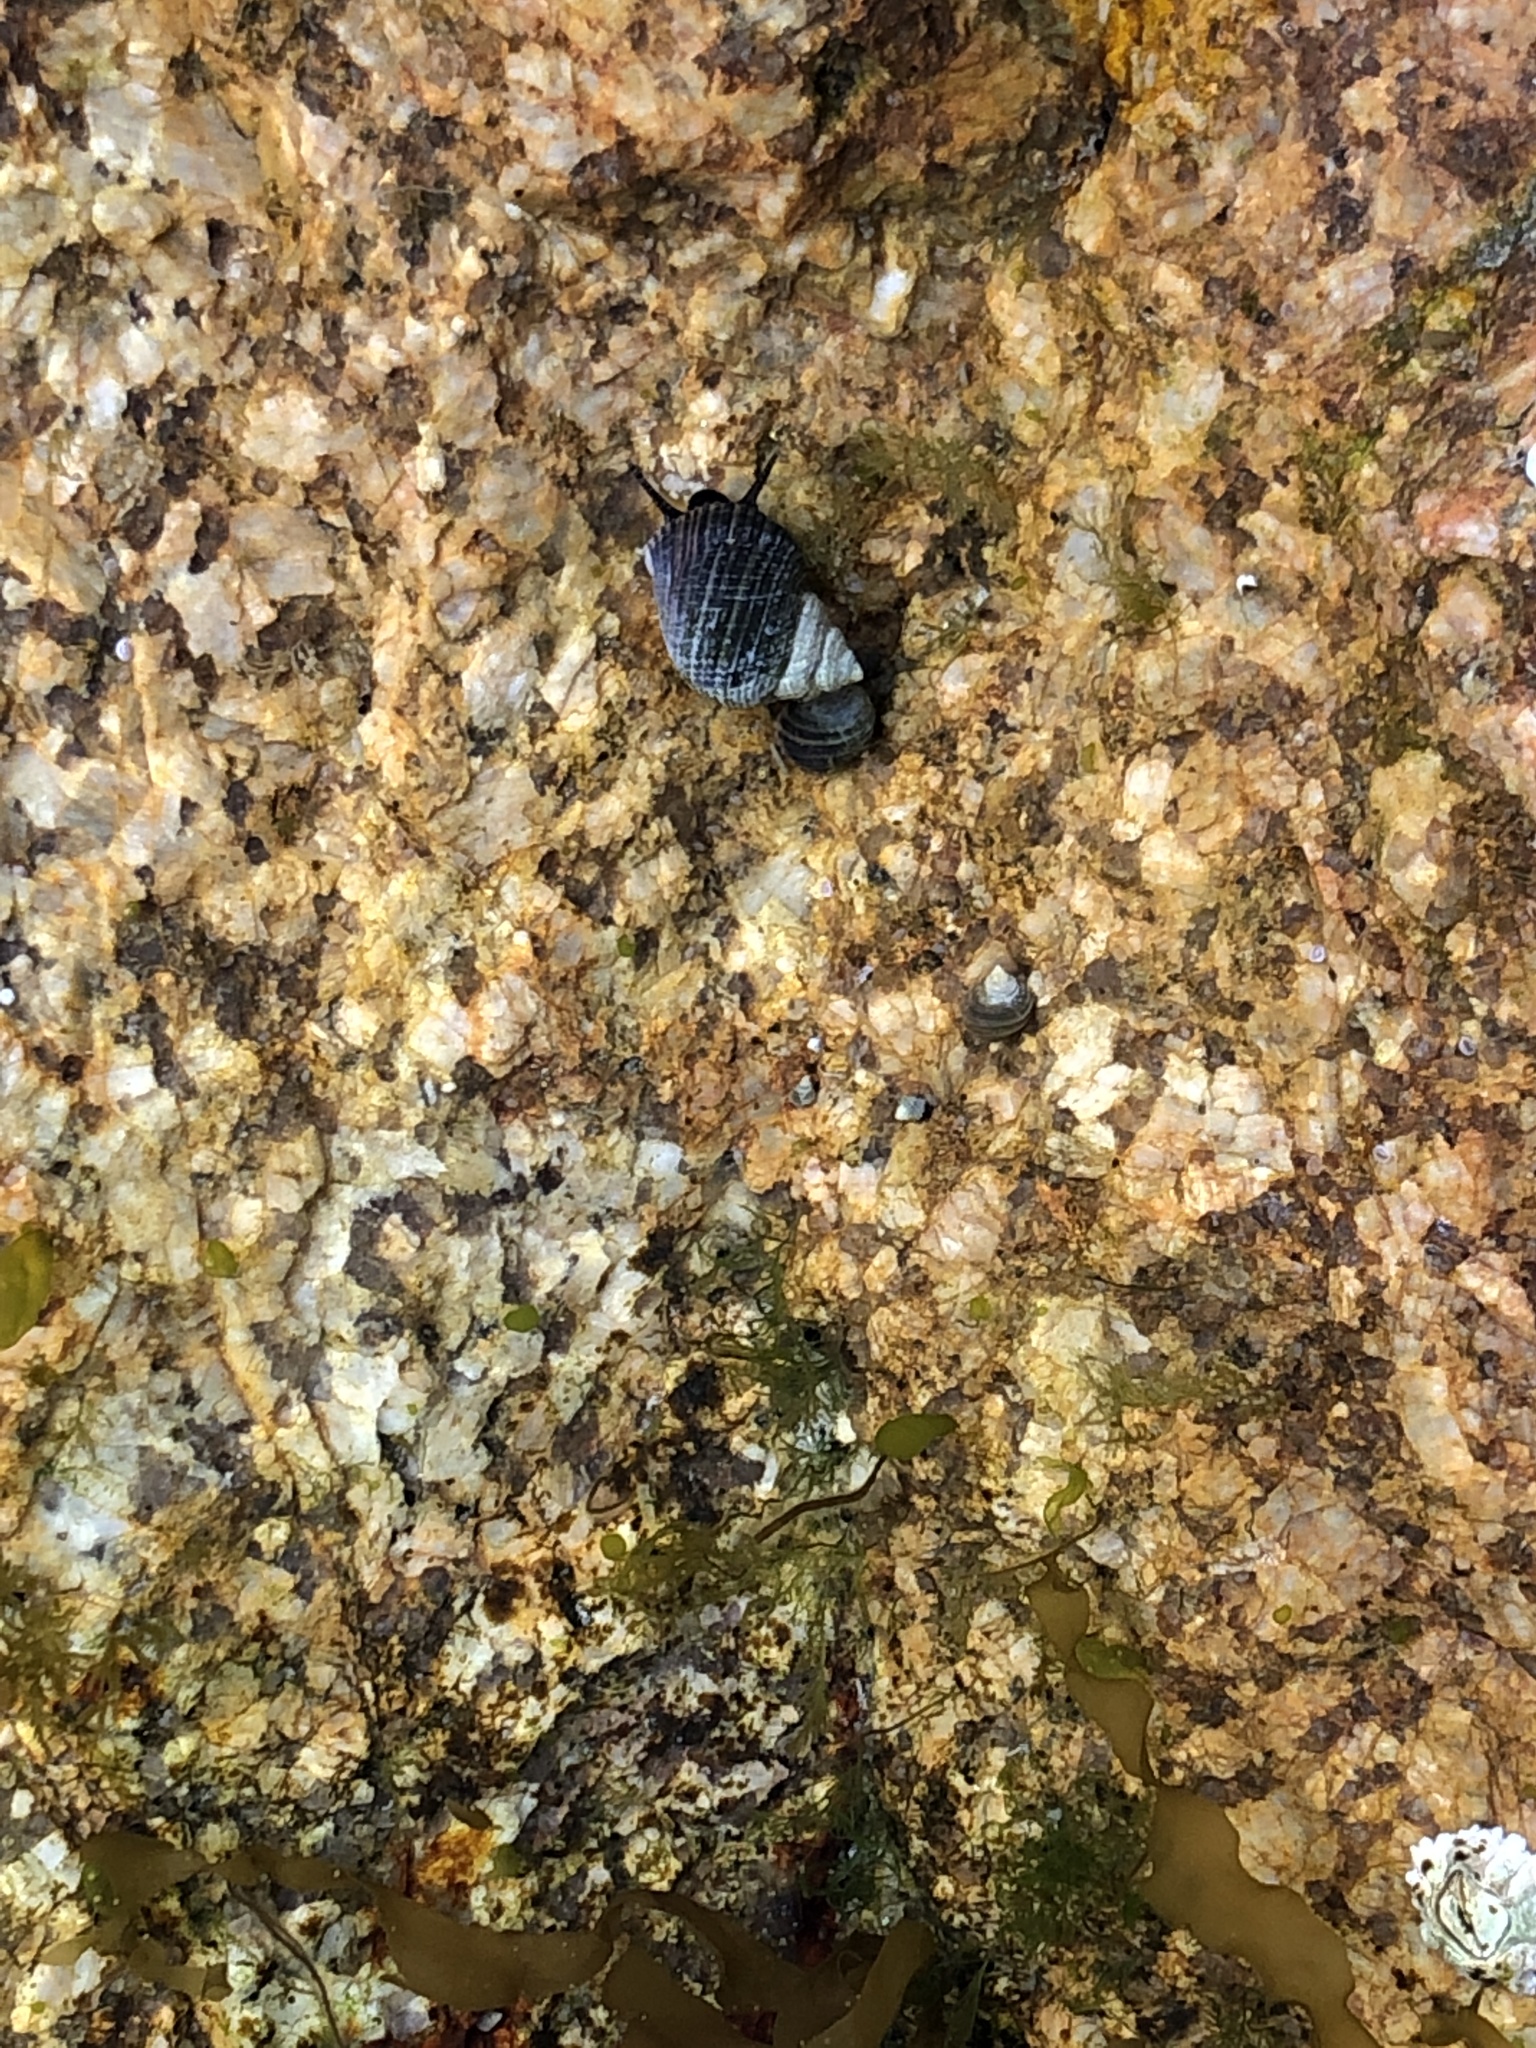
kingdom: Animalia
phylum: Mollusca
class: Gastropoda
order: Littorinimorpha
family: Littorinidae
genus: Littorina
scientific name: Littorina littorea
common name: Common periwinkle
